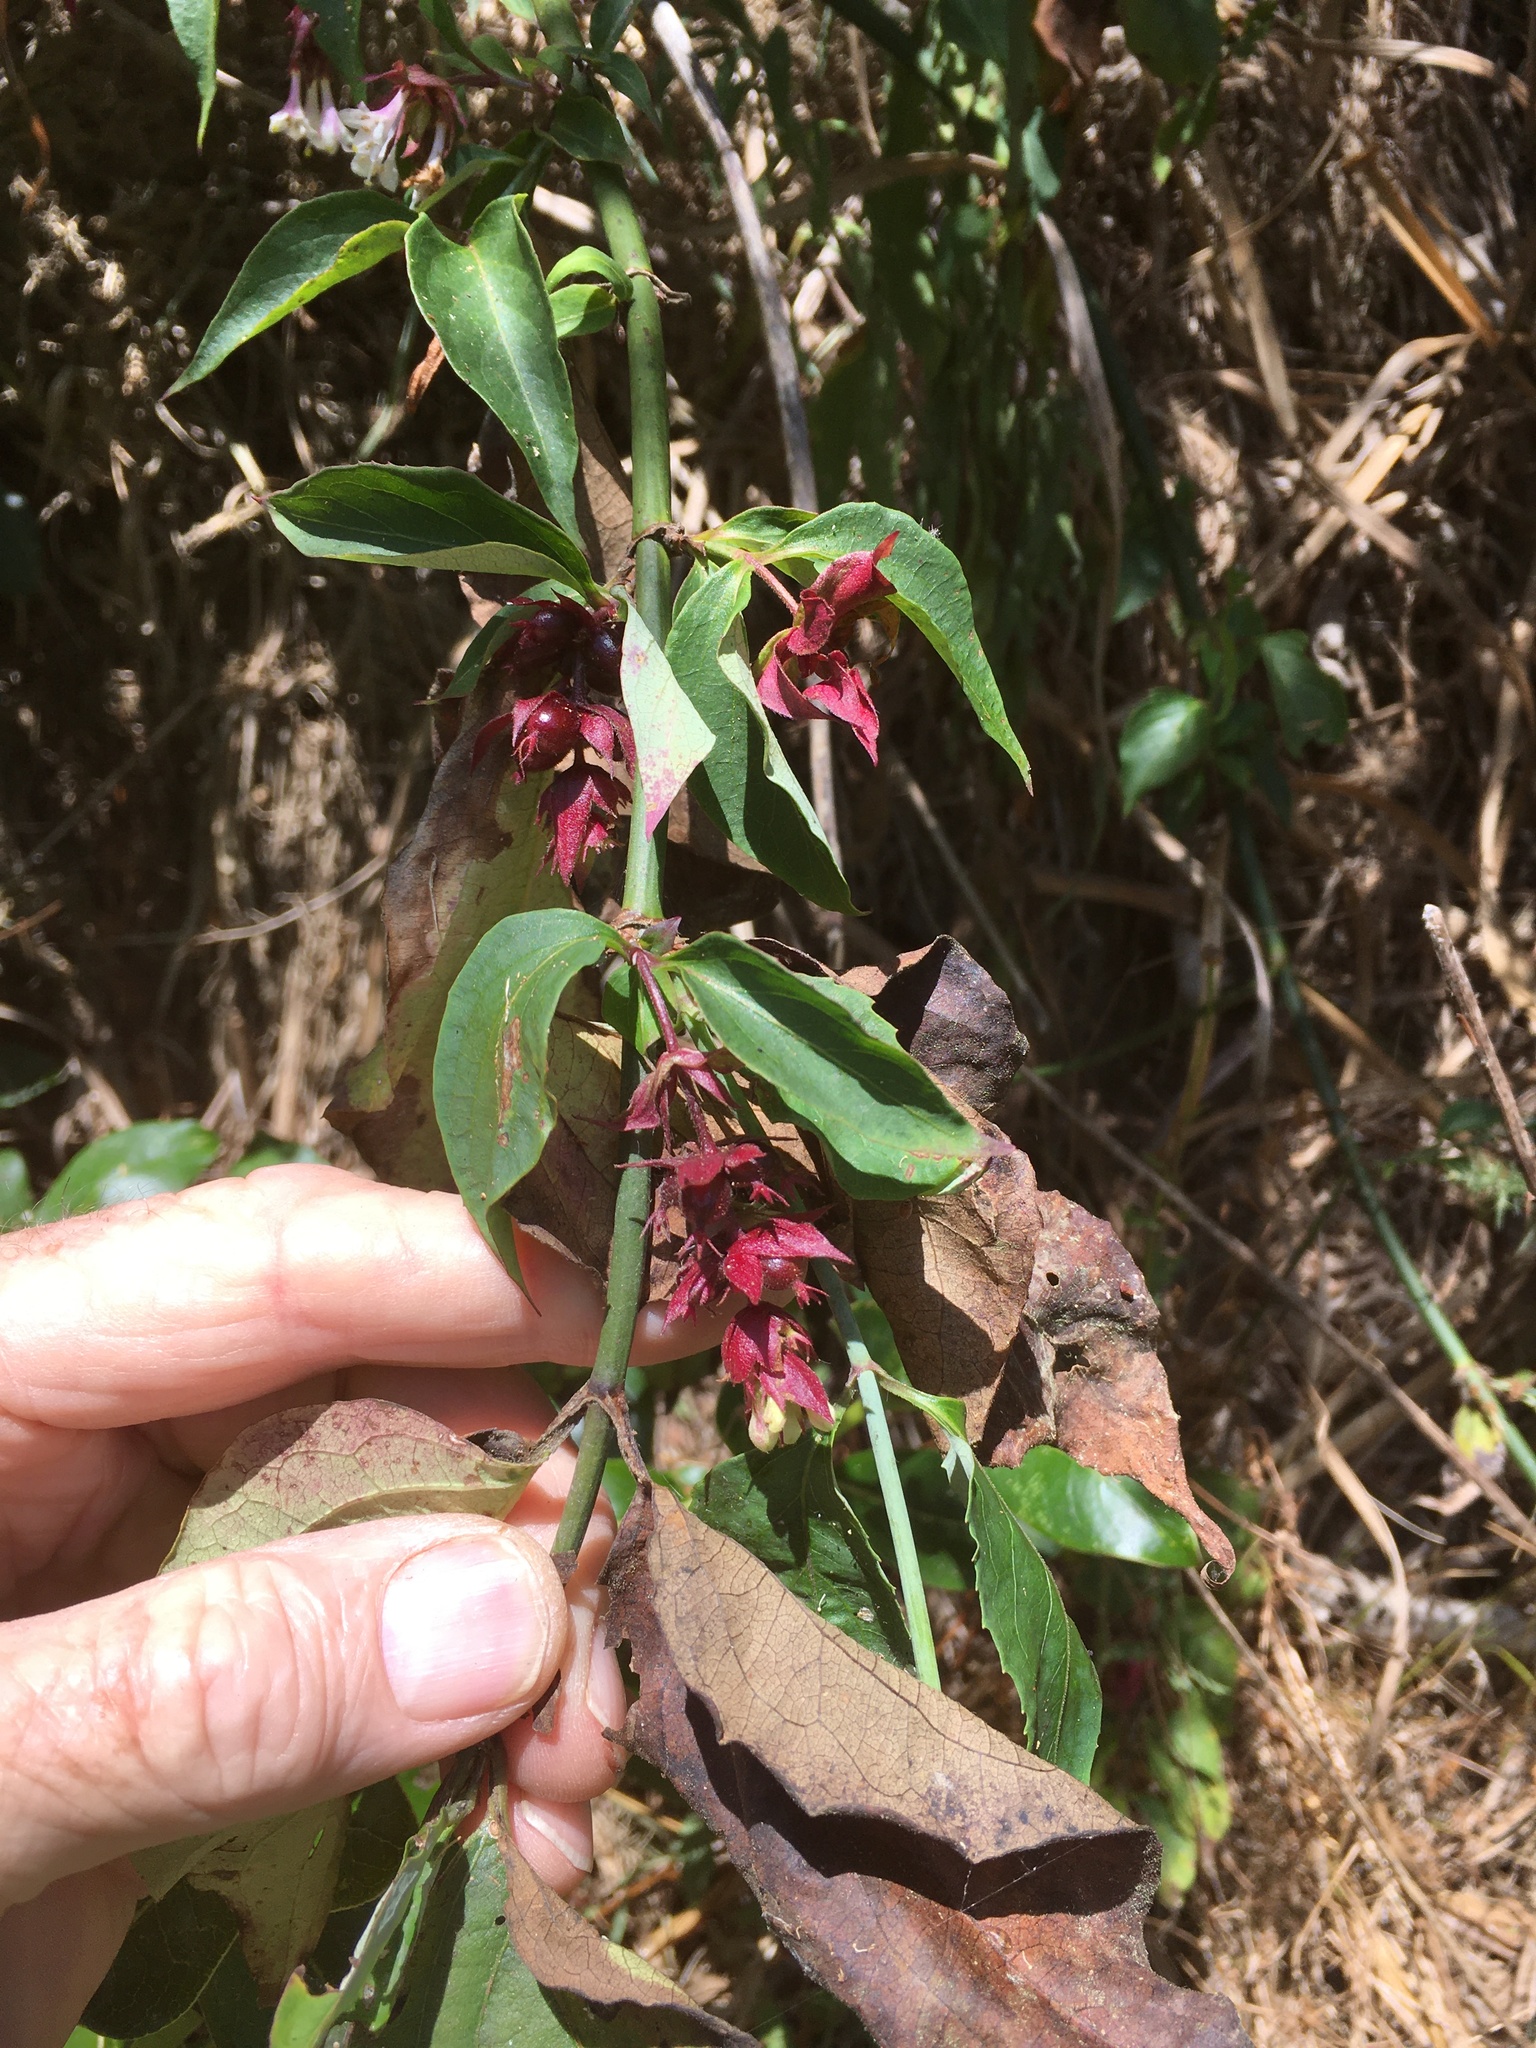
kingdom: Plantae
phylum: Tracheophyta
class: Magnoliopsida
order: Dipsacales
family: Caprifoliaceae
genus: Leycesteria
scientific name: Leycesteria formosa
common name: Himalayan honeysuckle
